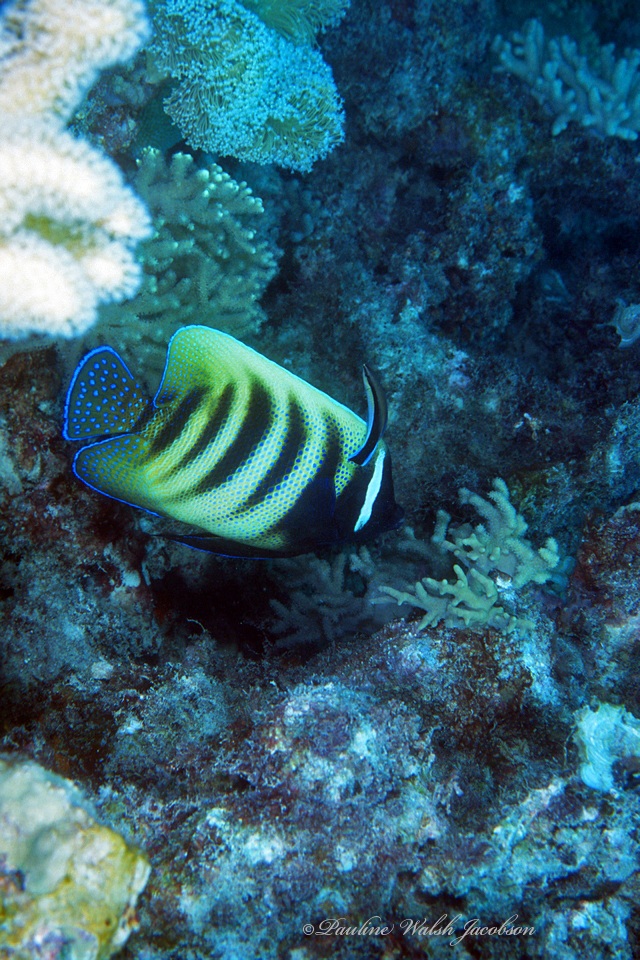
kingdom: Animalia
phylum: Chordata
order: Perciformes
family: Labridae
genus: Labroides
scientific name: Labroides dimidiatus
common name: Blue diesel wrasse
